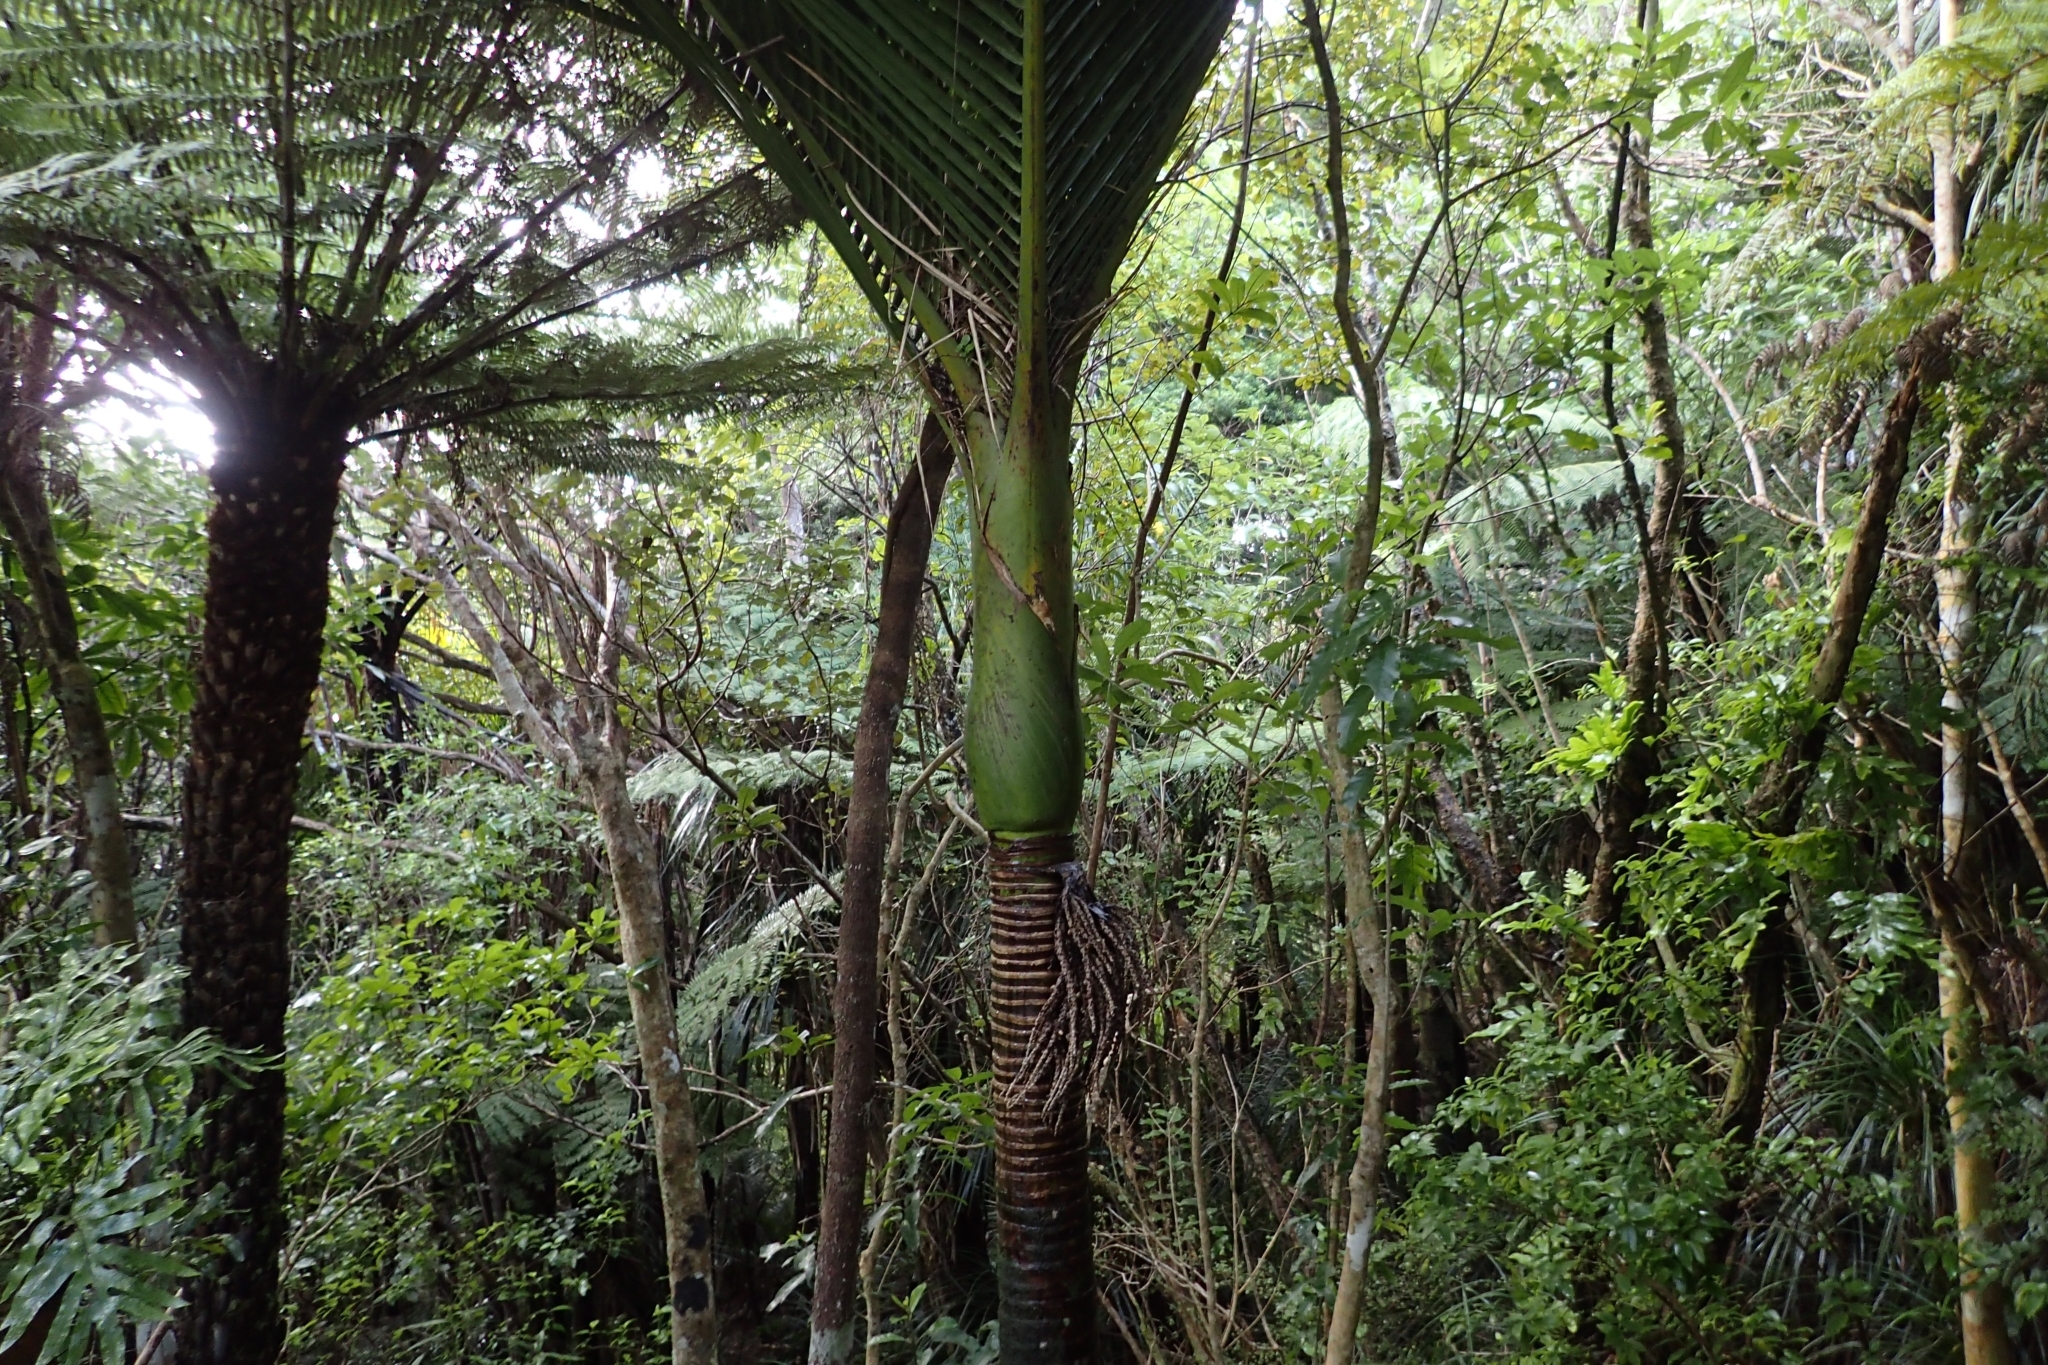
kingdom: Plantae
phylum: Tracheophyta
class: Liliopsida
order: Arecales
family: Arecaceae
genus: Rhopalostylis
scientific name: Rhopalostylis sapida
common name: Feather-duster palm
